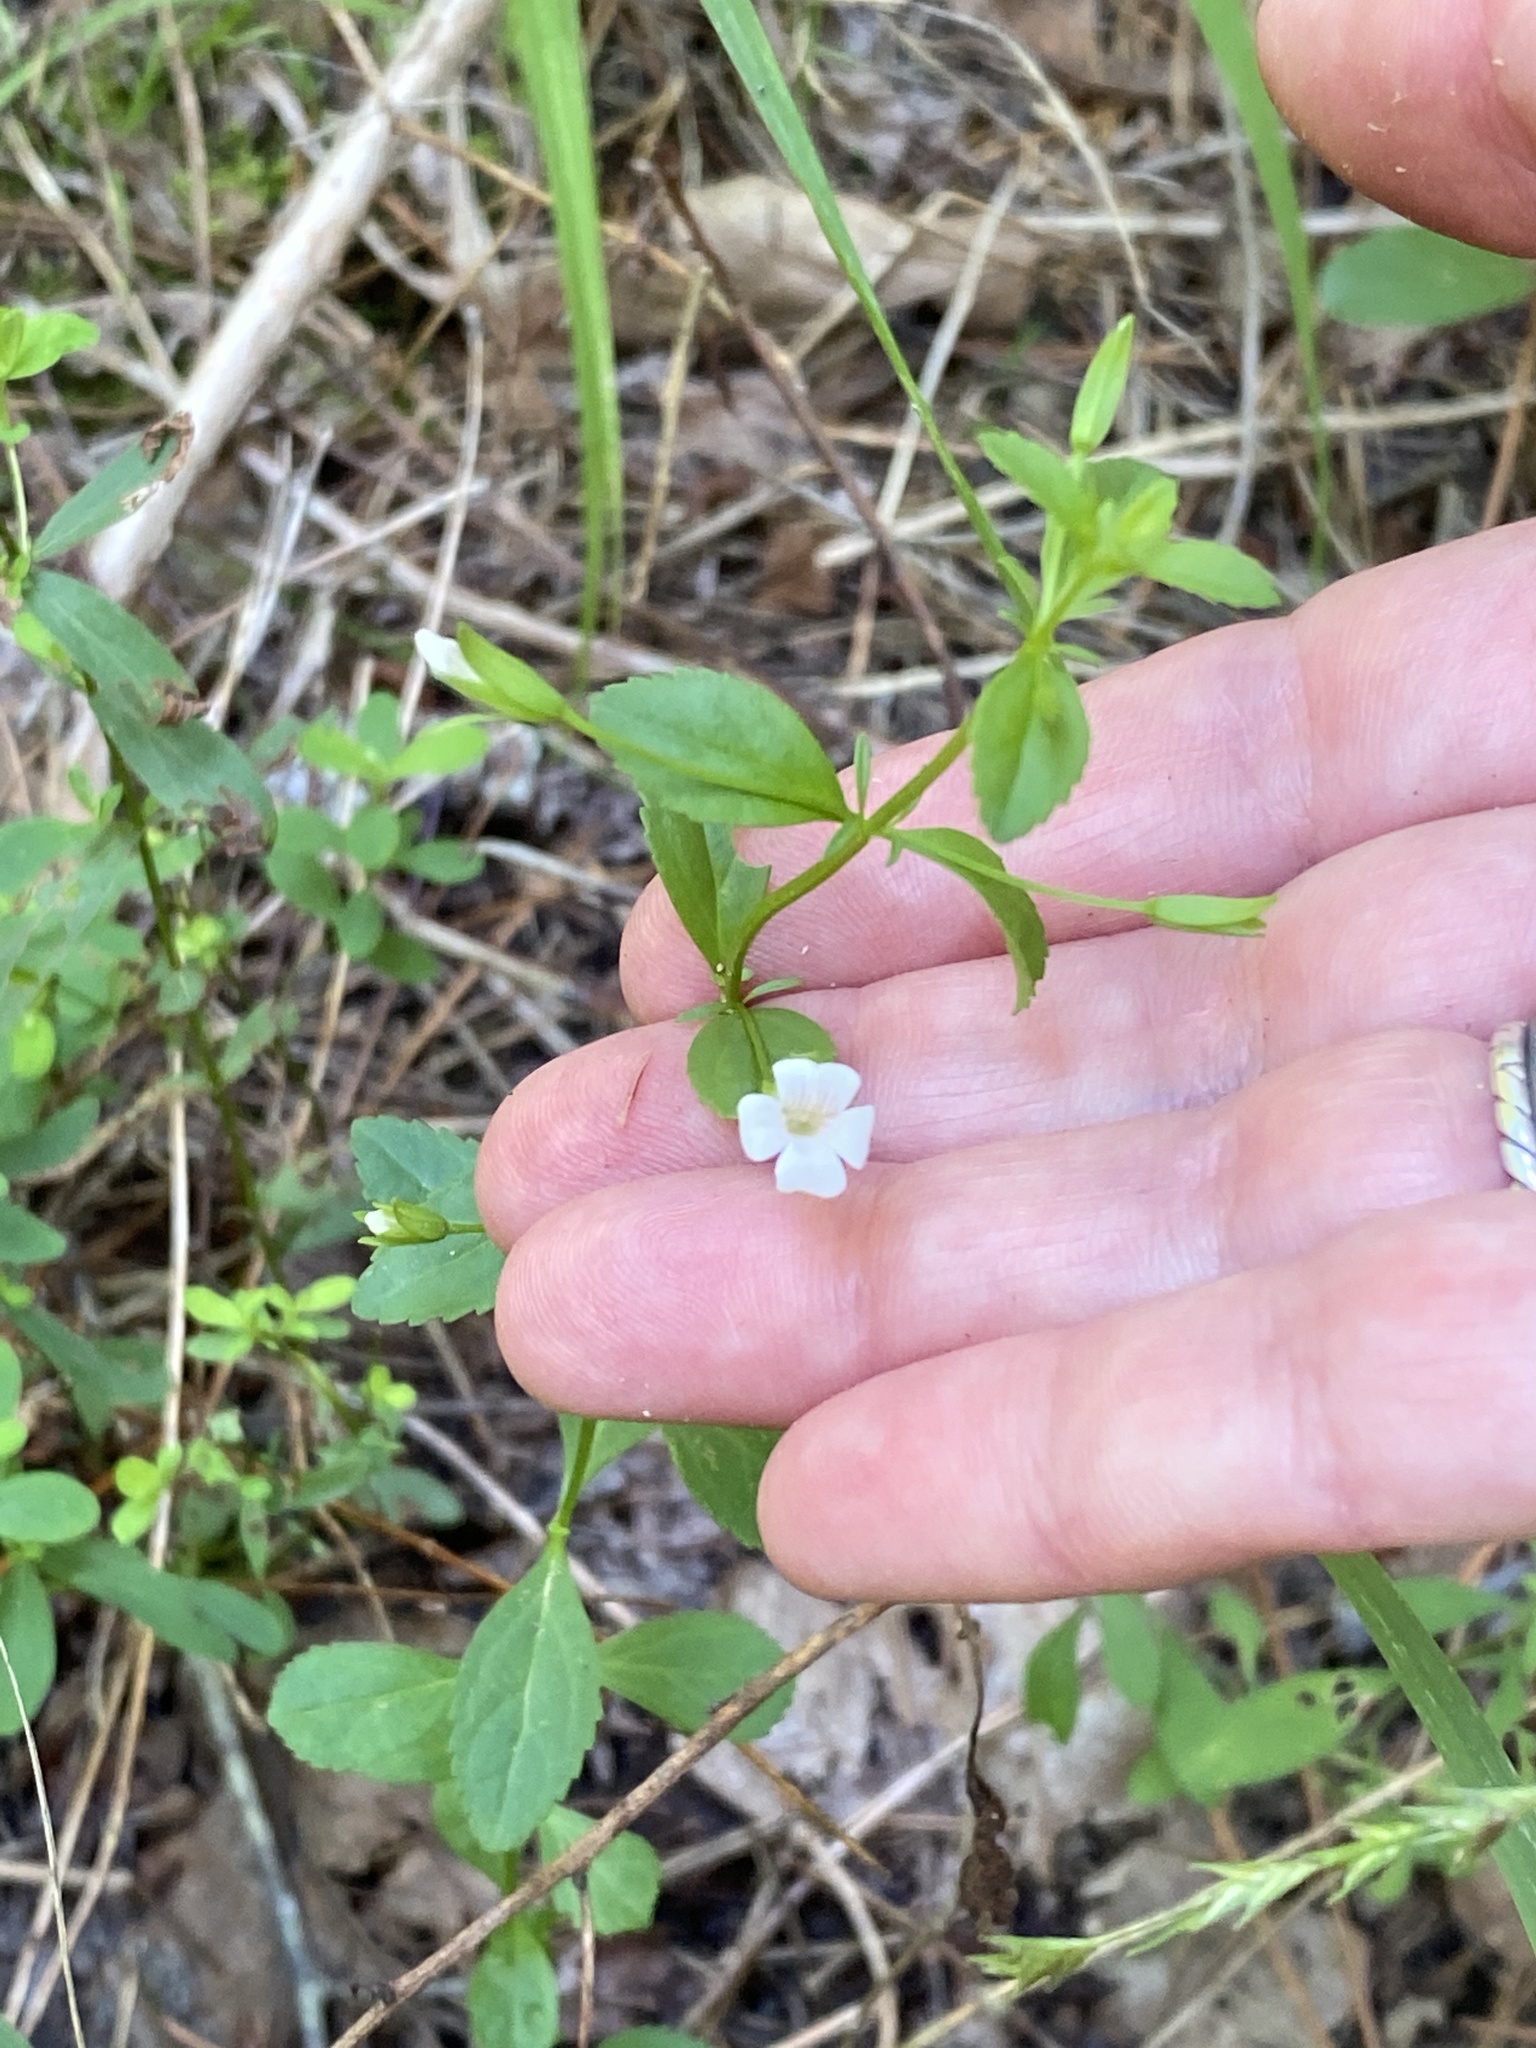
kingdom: Plantae
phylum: Tracheophyta
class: Magnoliopsida
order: Lamiales
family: Plantaginaceae
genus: Mecardonia
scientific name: Mecardonia acuminata
